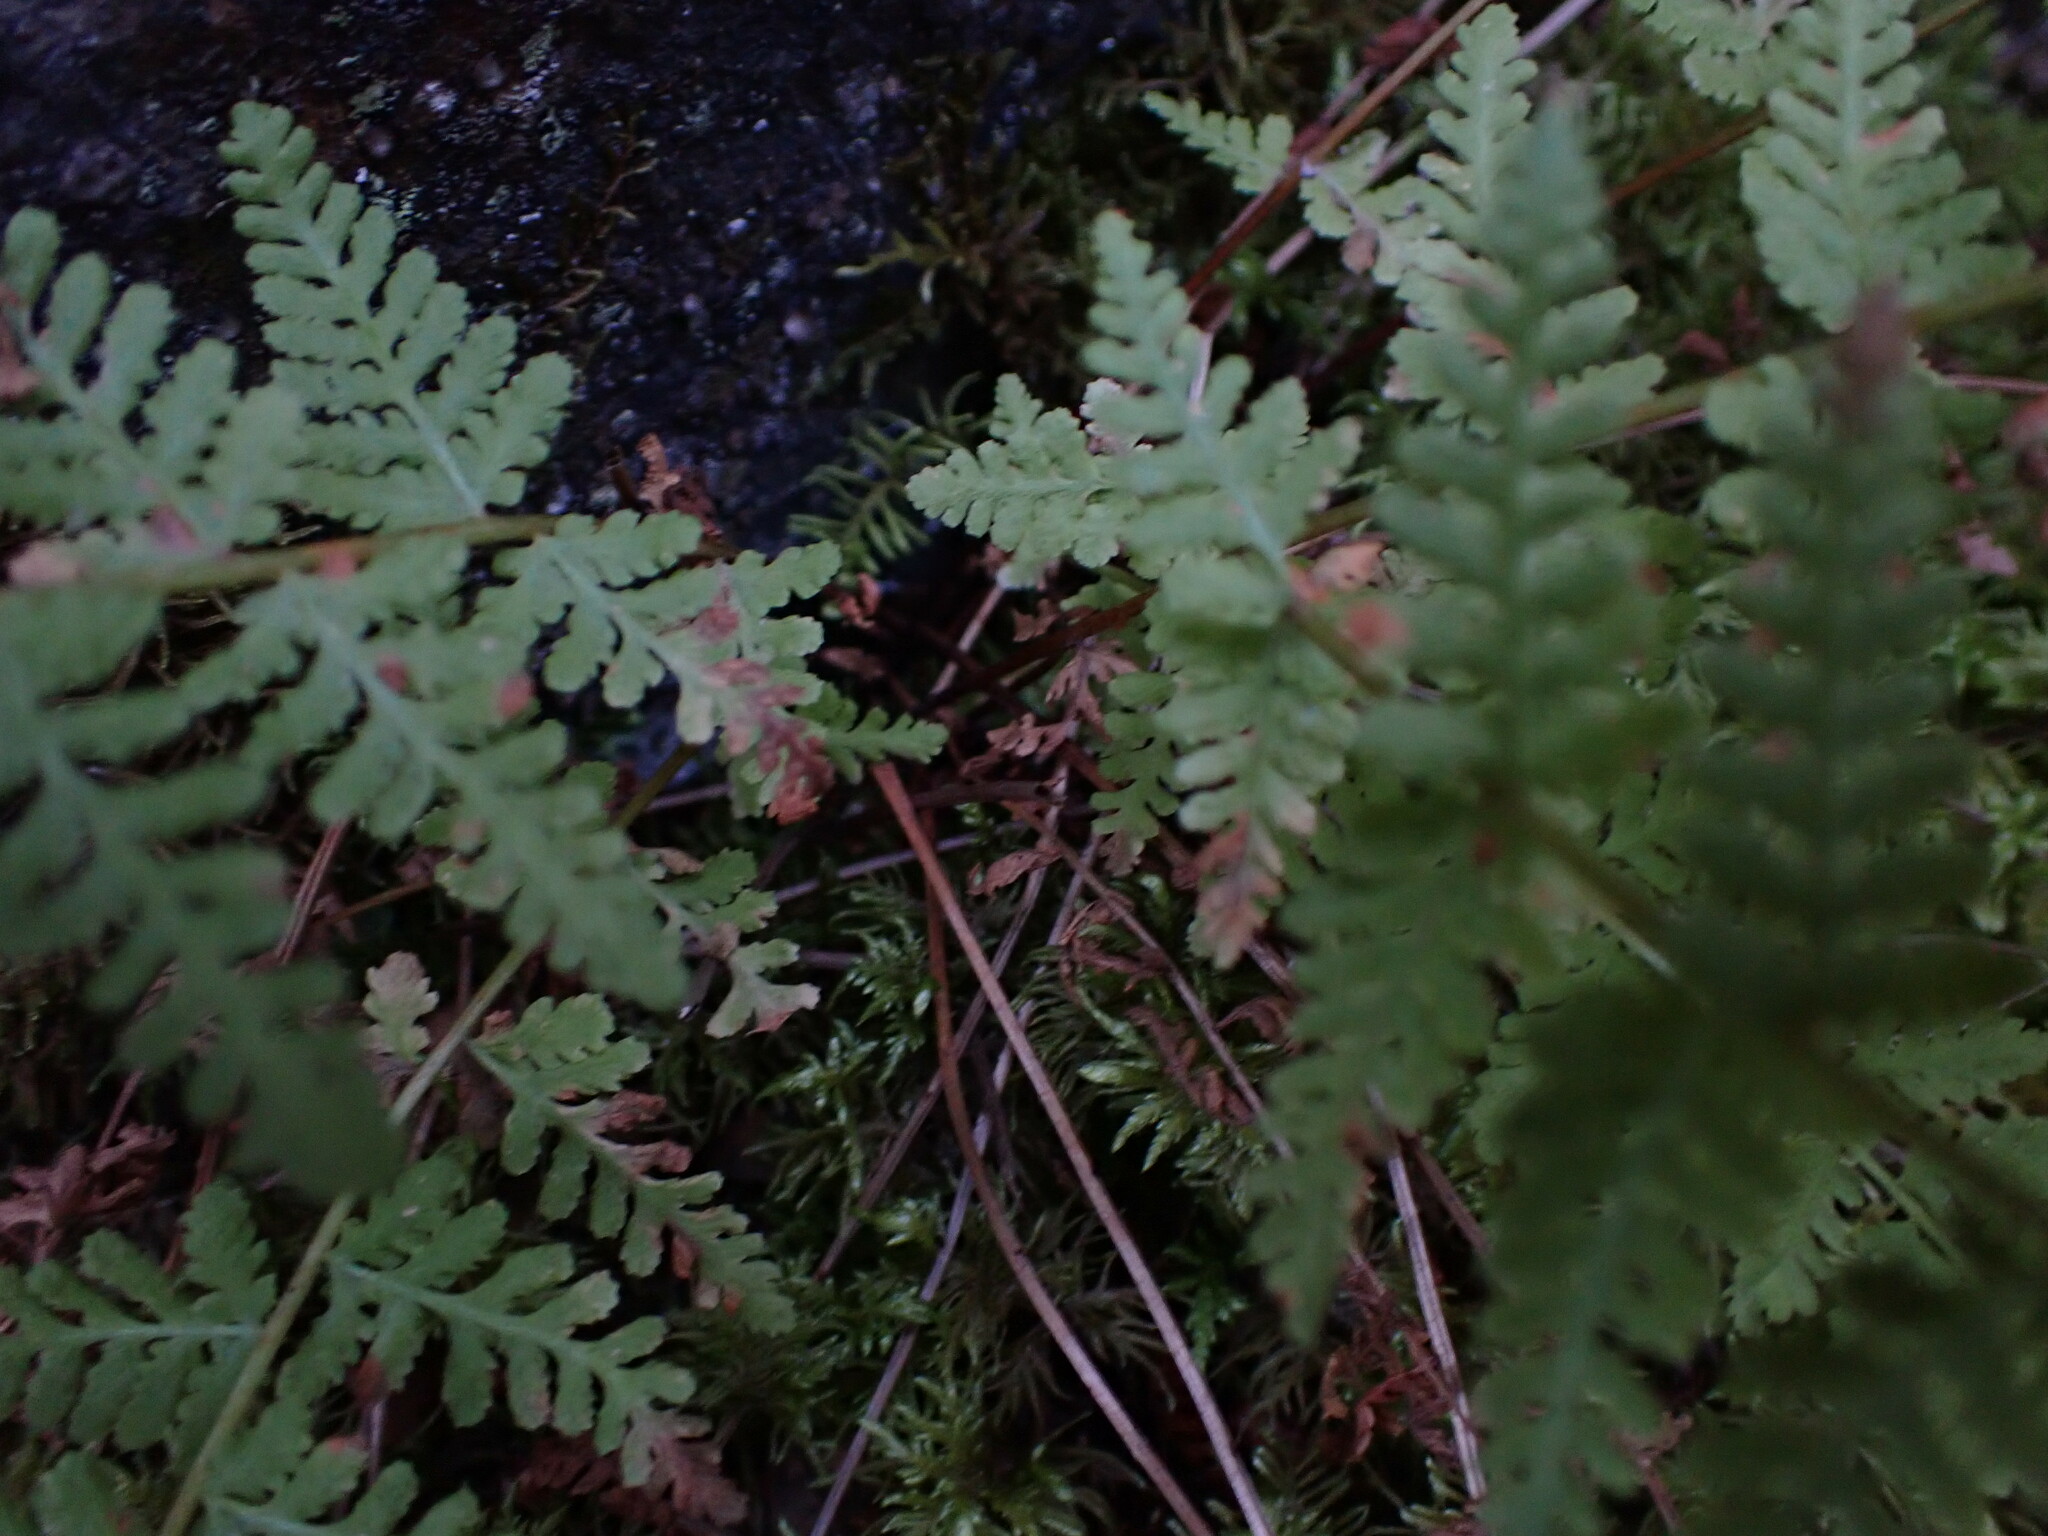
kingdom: Plantae
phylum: Tracheophyta
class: Polypodiopsida
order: Polypodiales
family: Woodsiaceae
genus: Physematium
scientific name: Physematium scopulinum
